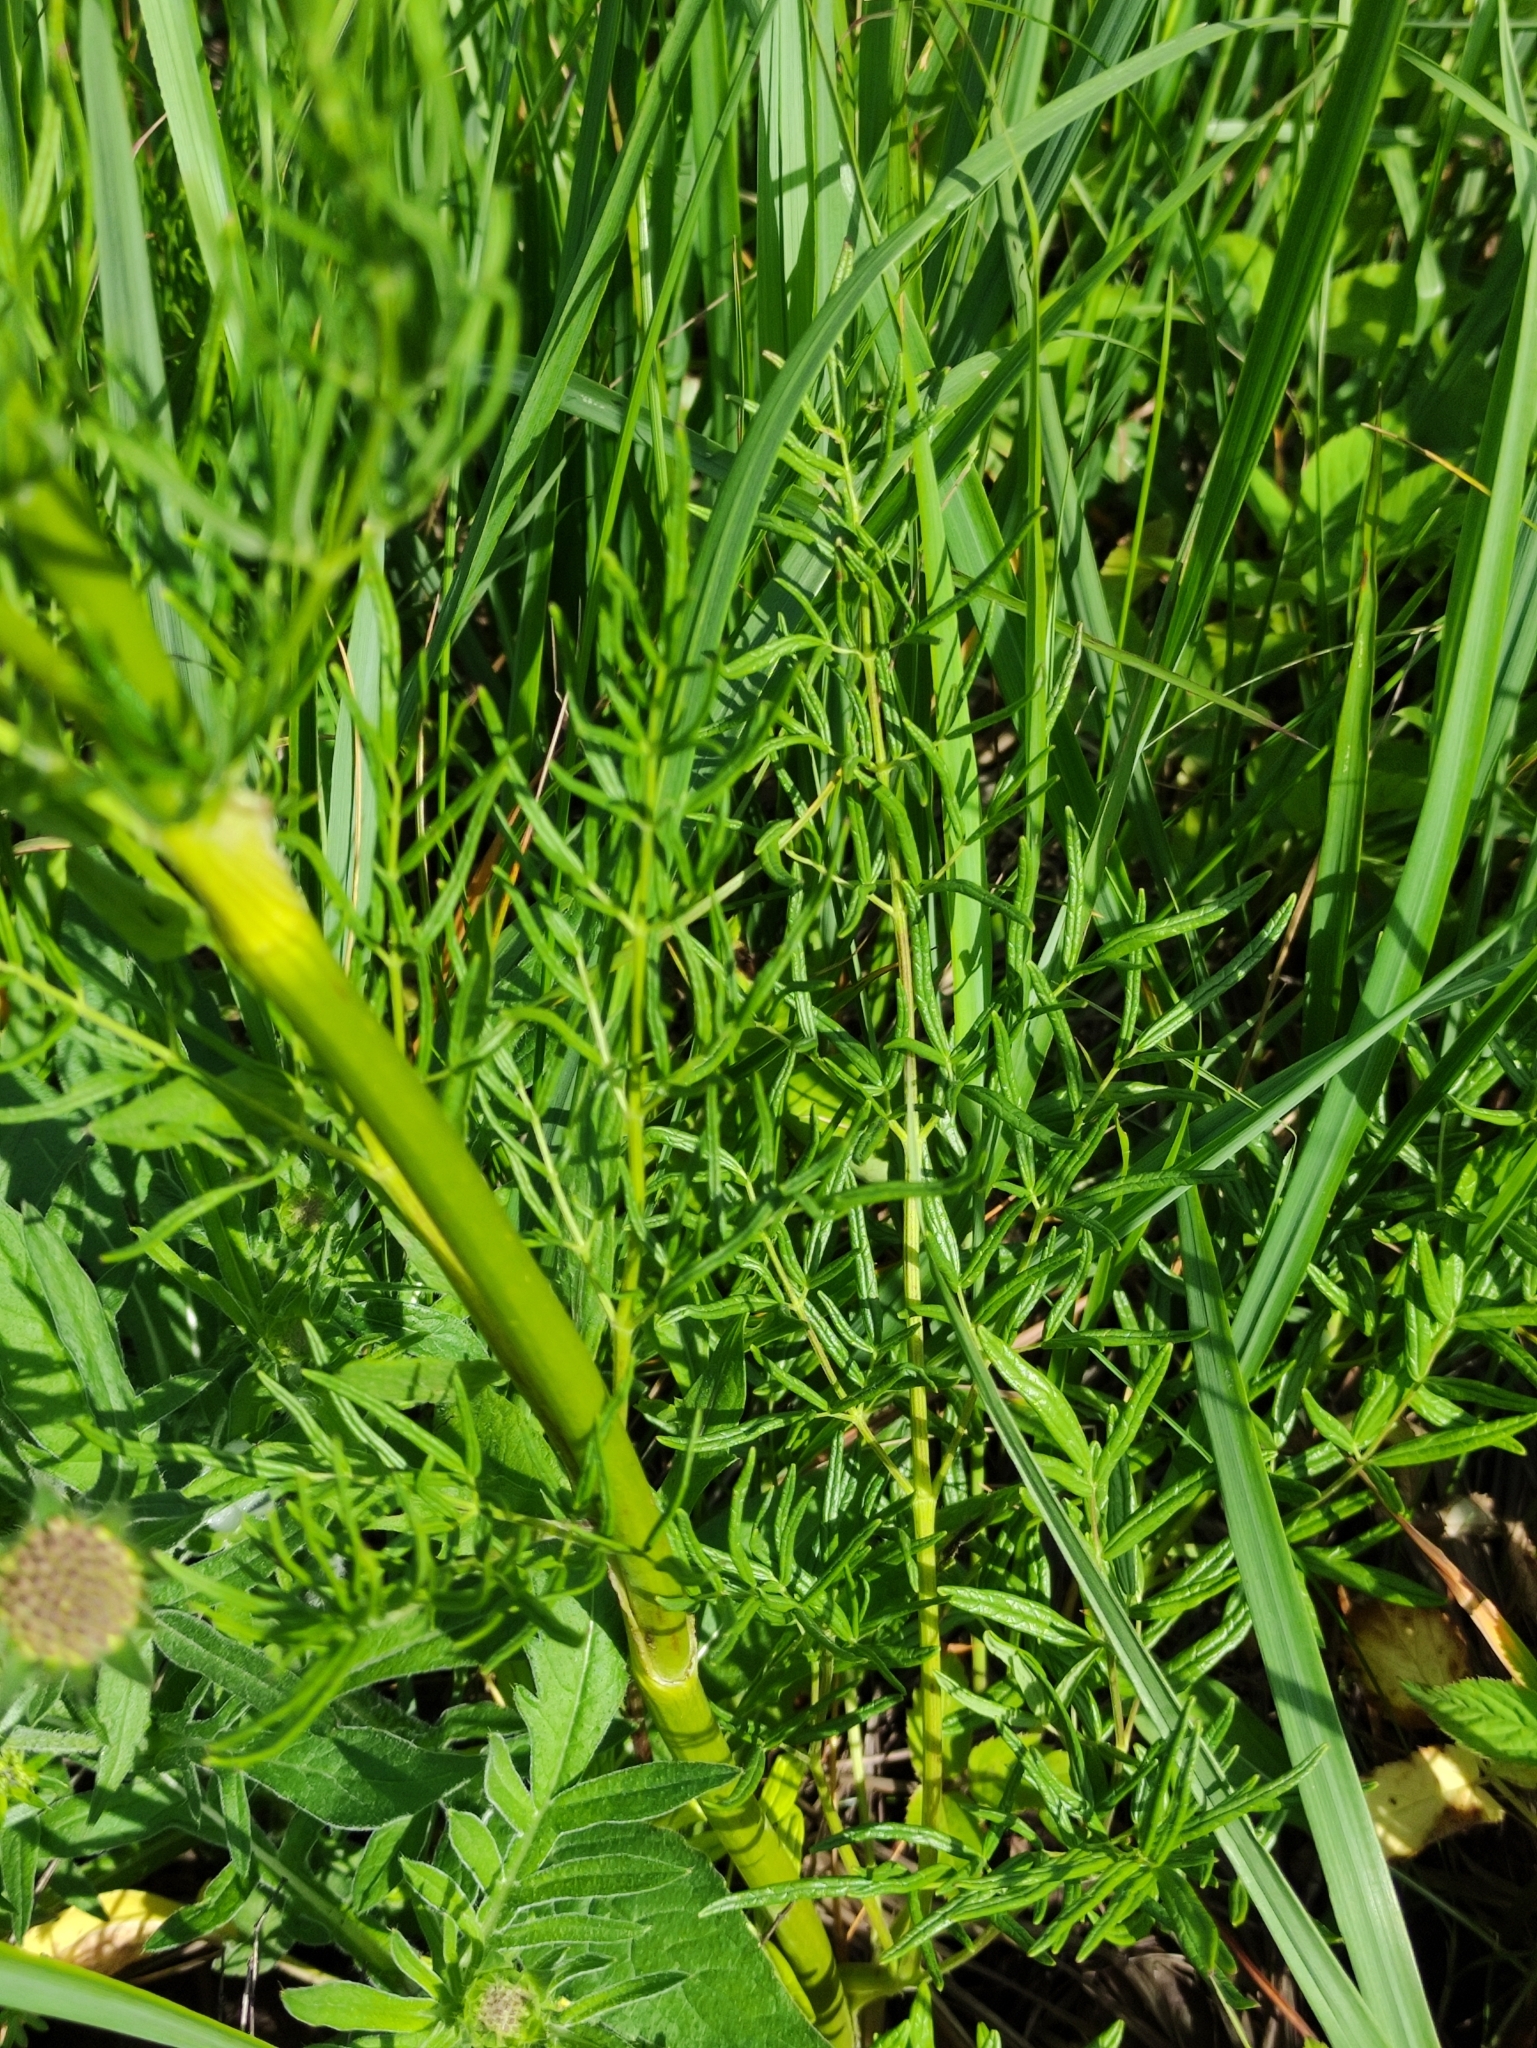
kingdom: Plantae
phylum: Tracheophyta
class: Magnoliopsida
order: Ranunculales
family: Ranunculaceae
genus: Thalictrum
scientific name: Thalictrum lucidum
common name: Shining meadow-rue
